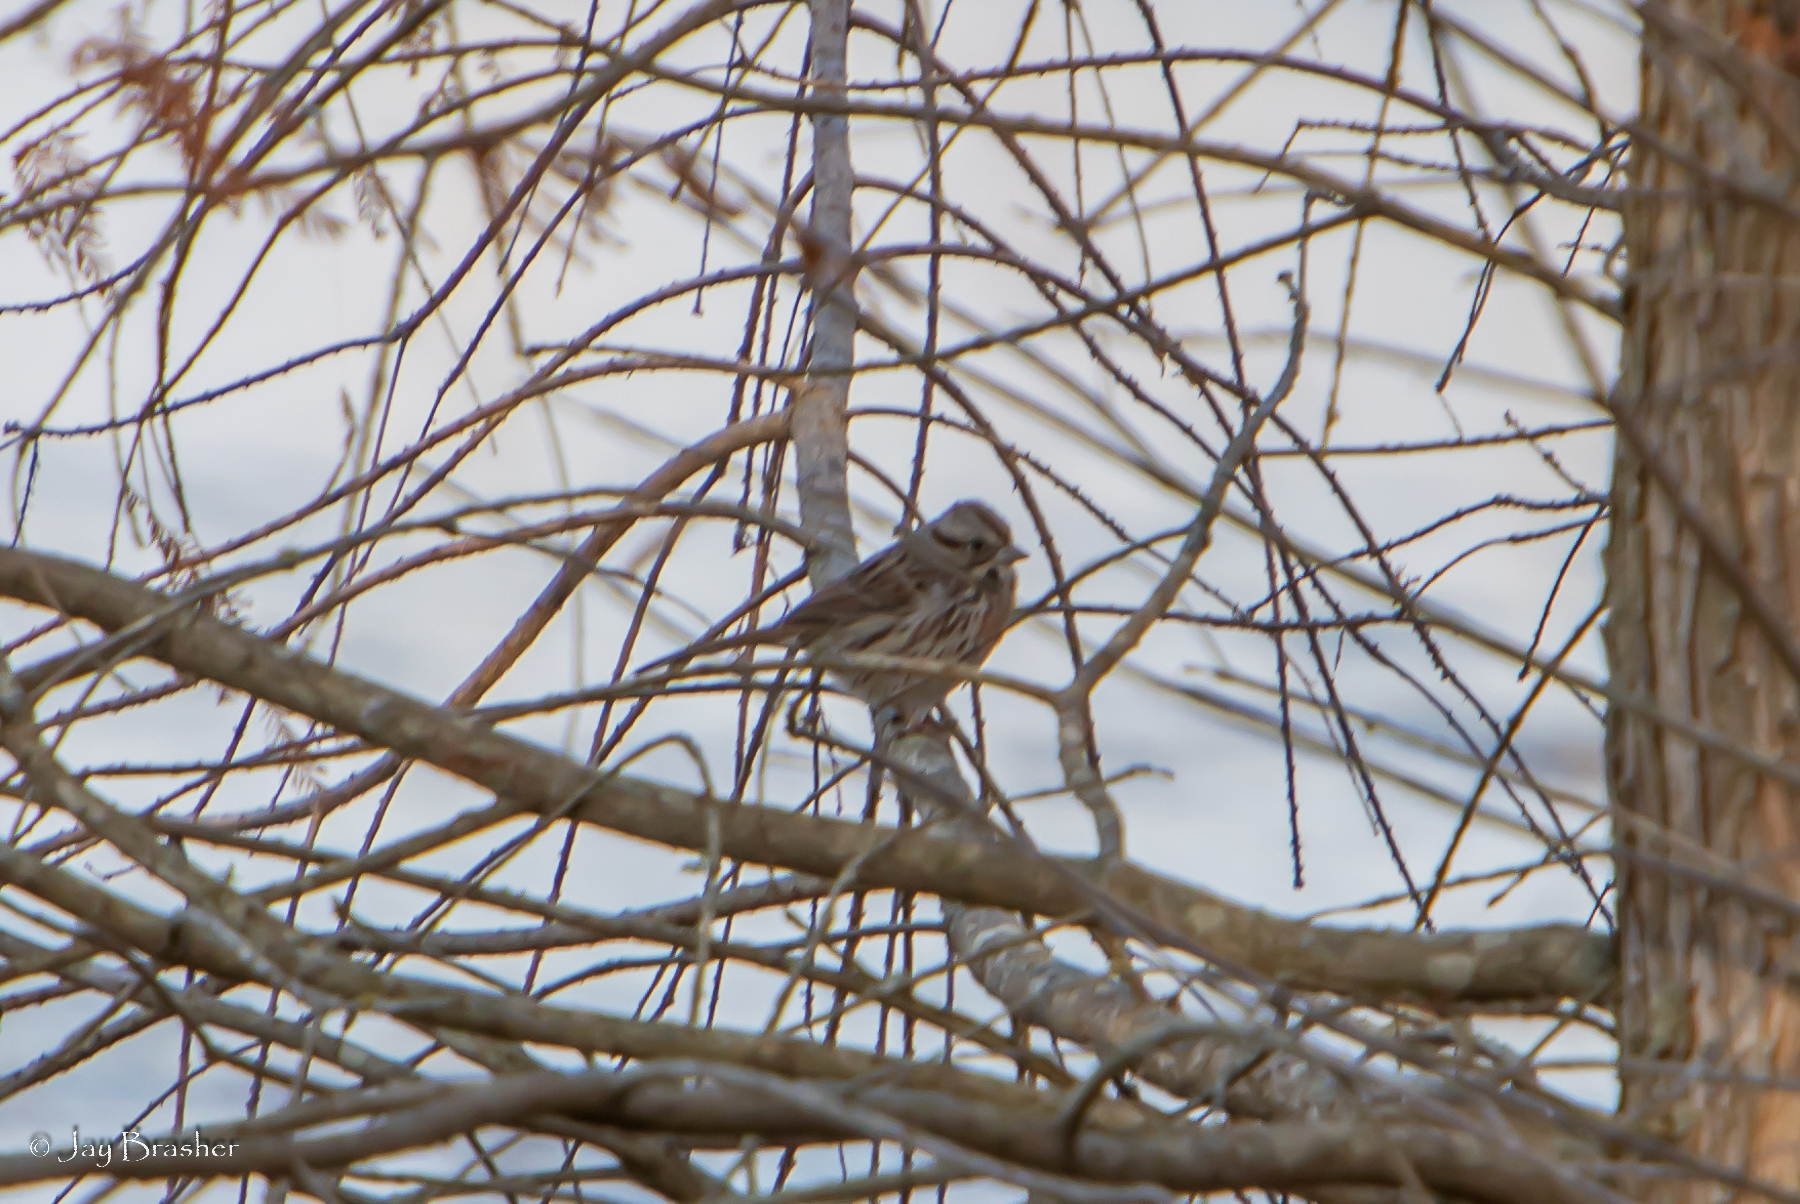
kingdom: Animalia
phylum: Chordata
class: Aves
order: Passeriformes
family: Passerellidae
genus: Melospiza
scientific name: Melospiza melodia
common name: Song sparrow
